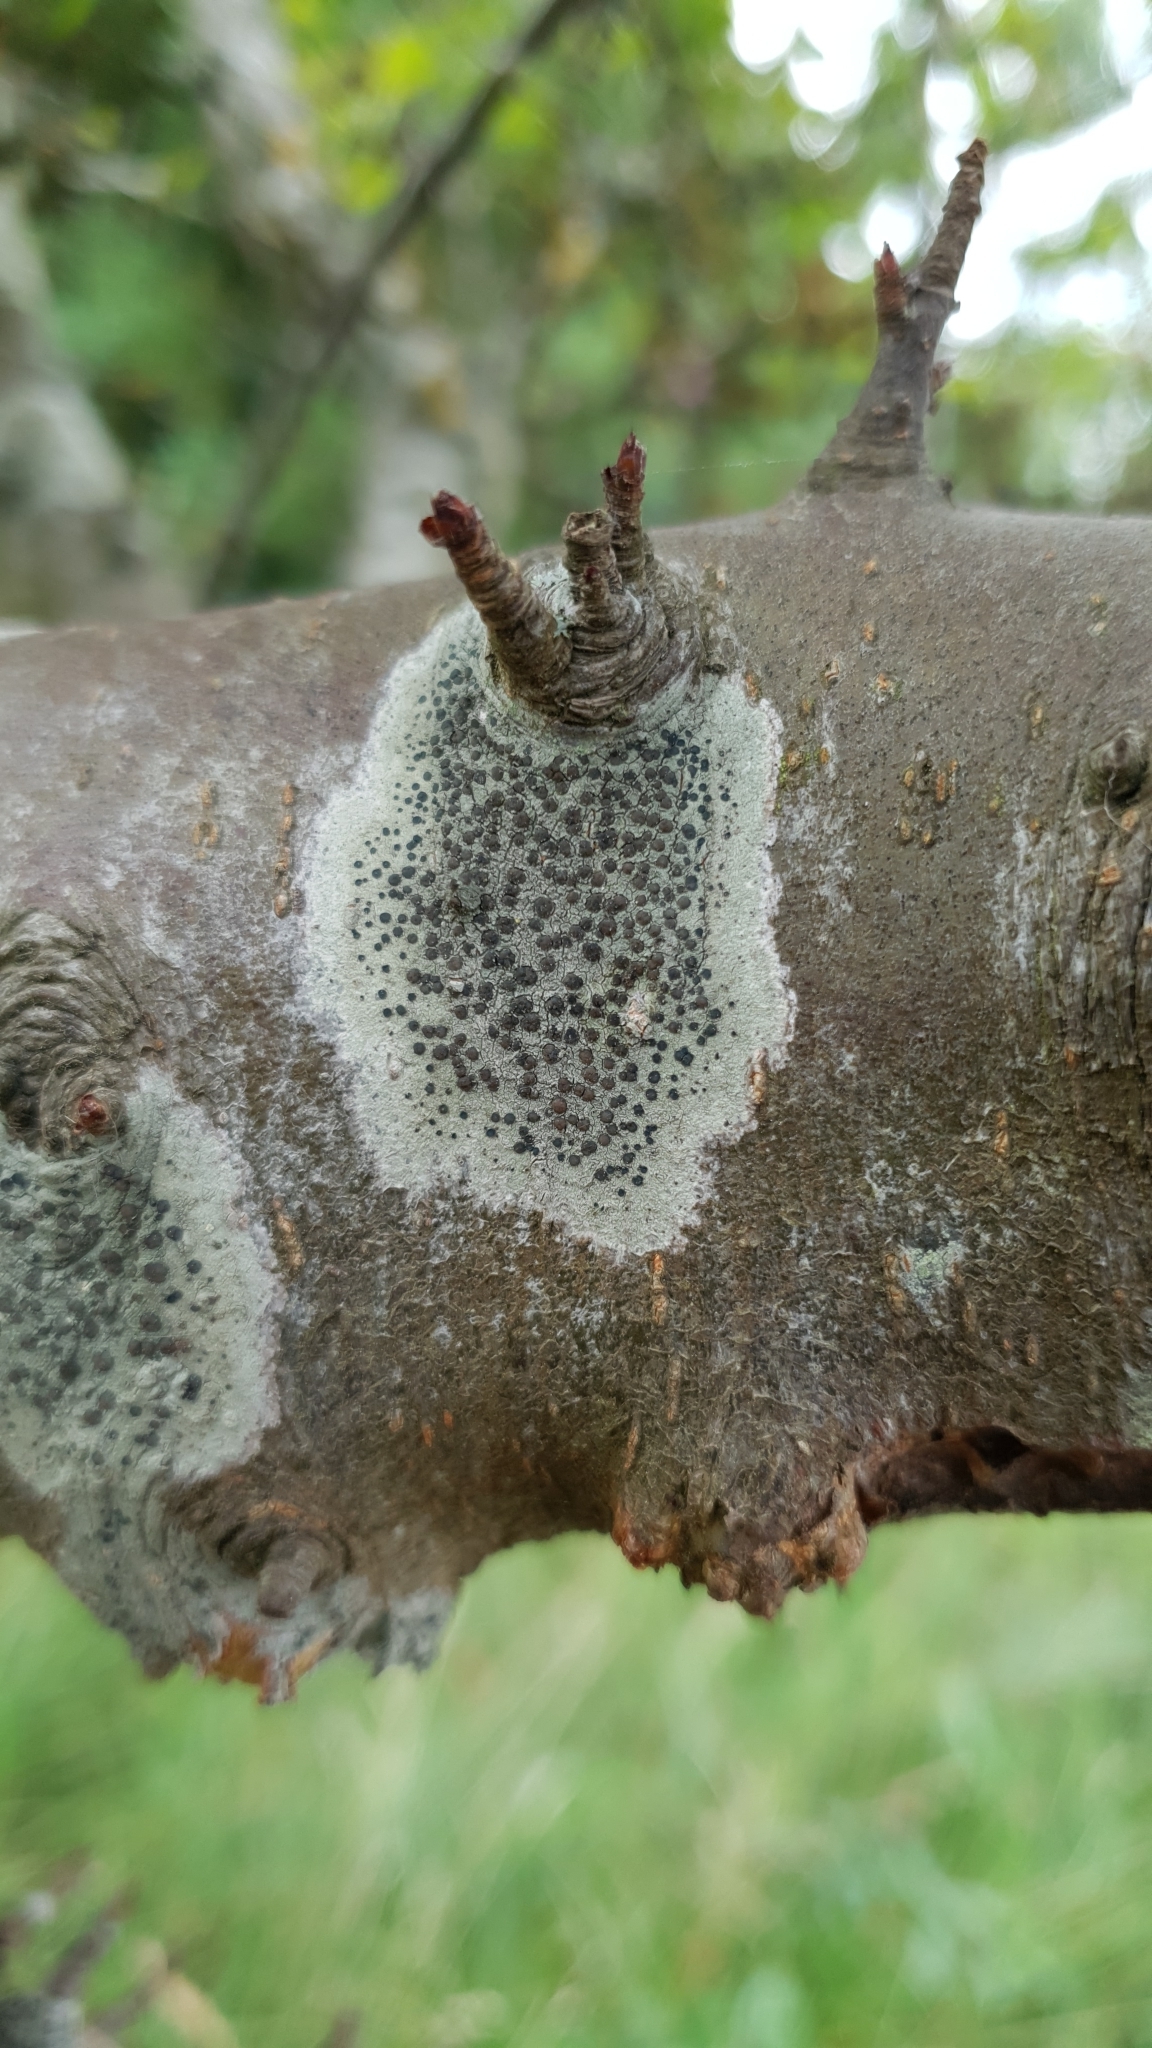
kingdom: Fungi
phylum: Ascomycota
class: Lecanoromycetes
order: Lecanorales
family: Lecanoraceae
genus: Lecidella
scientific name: Lecidella elaeochroma
